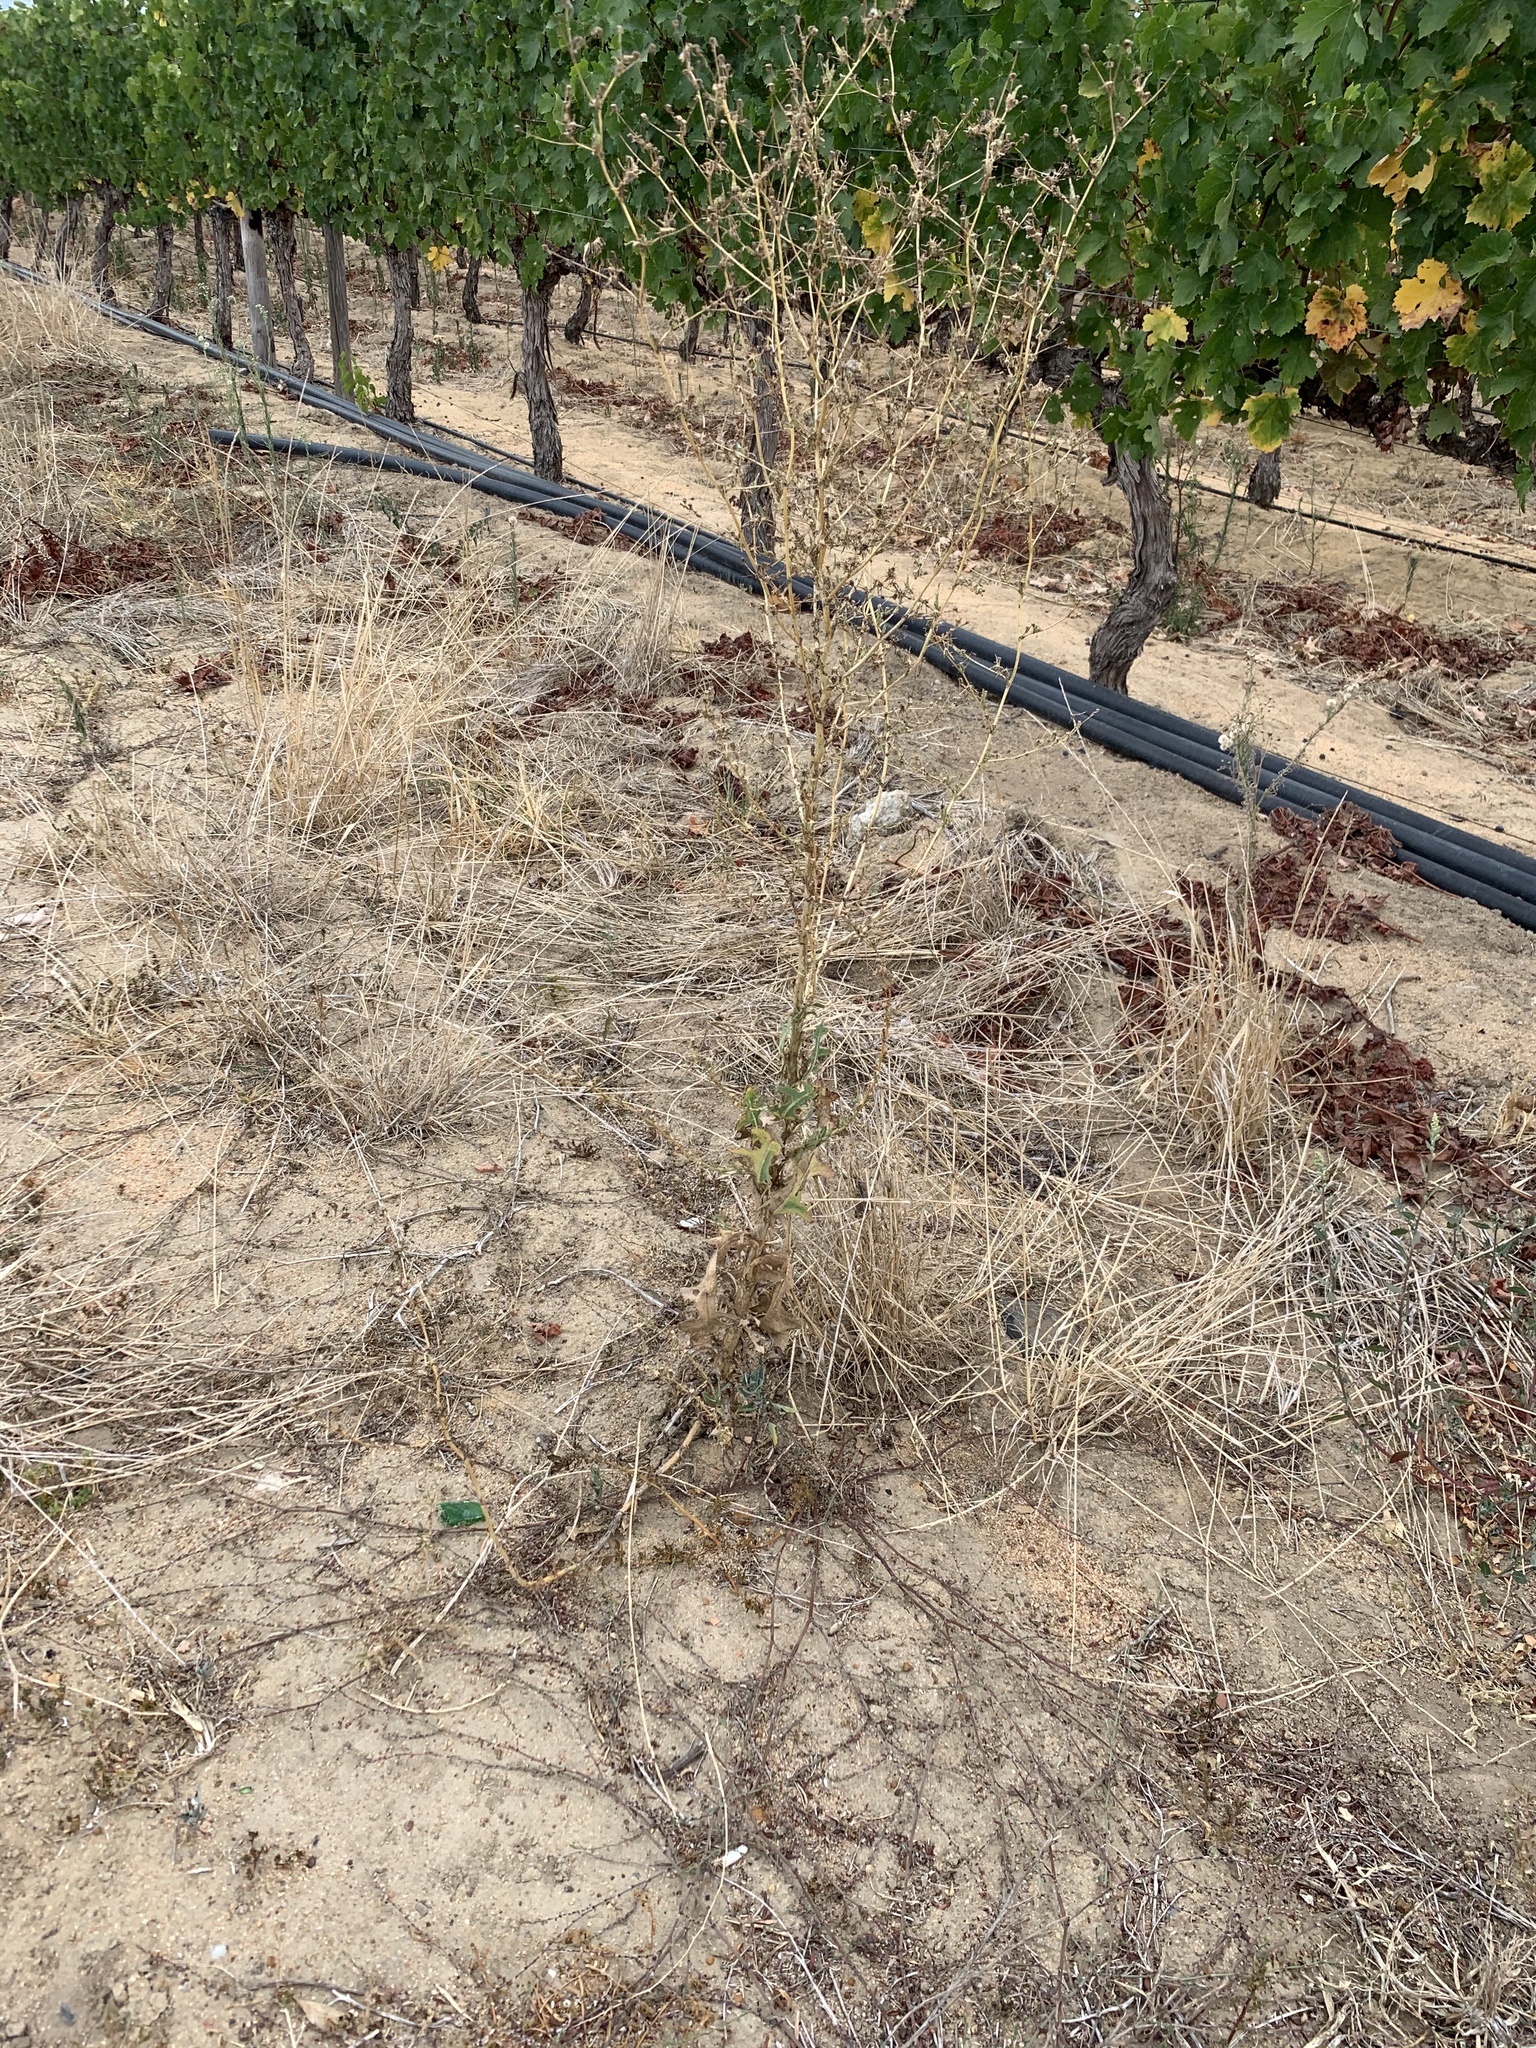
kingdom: Plantae
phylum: Tracheophyta
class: Magnoliopsida
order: Asterales
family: Asteraceae
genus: Lactuca
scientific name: Lactuca serriola
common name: Prickly lettuce
